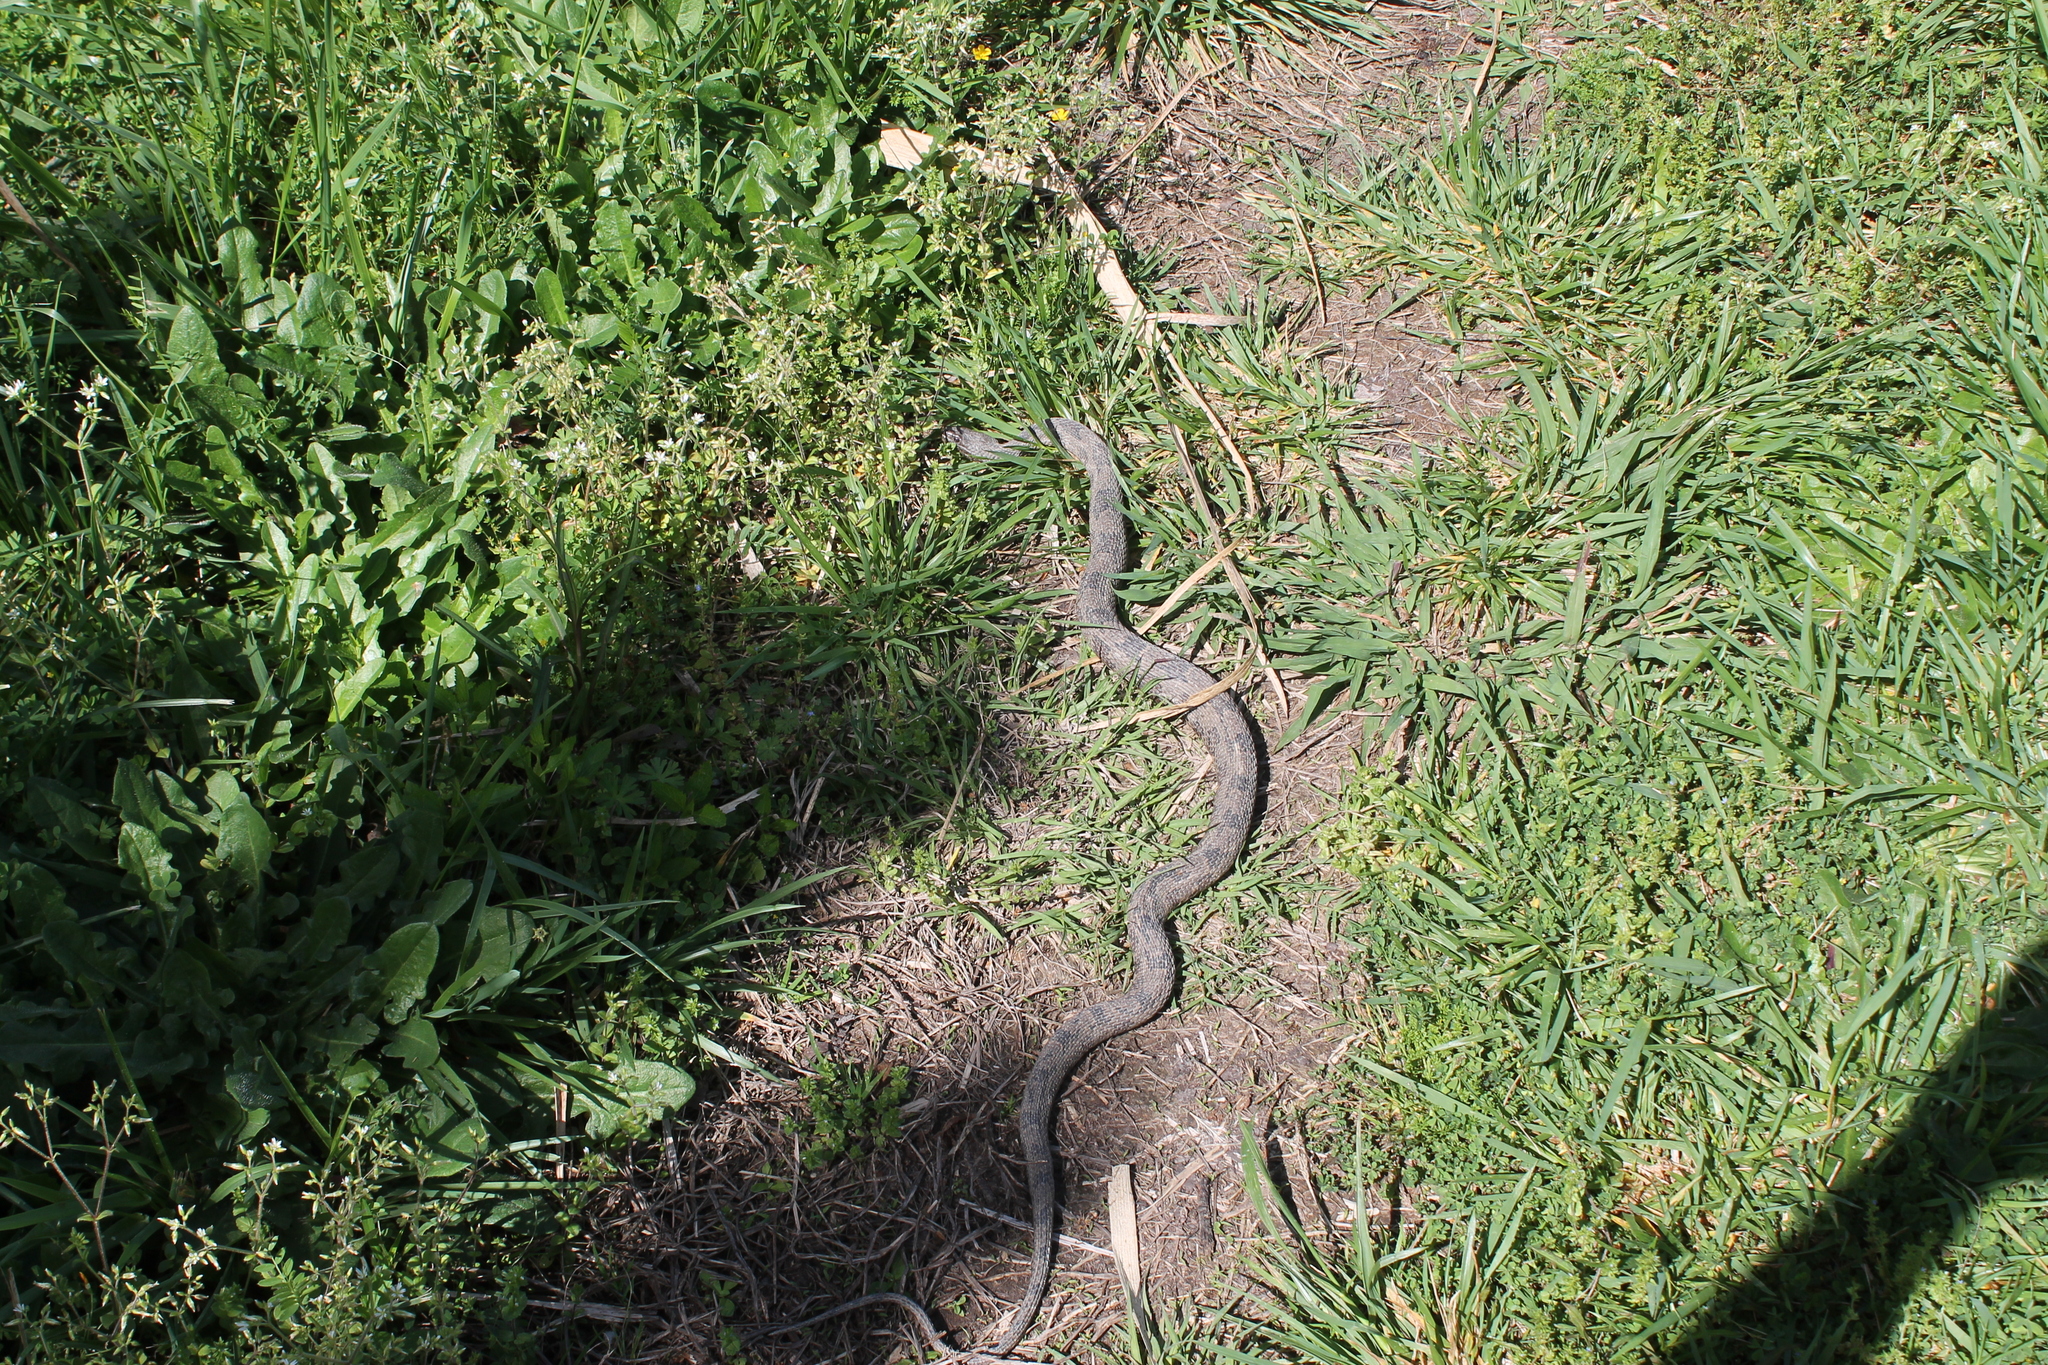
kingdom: Animalia
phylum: Chordata
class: Squamata
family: Colubridae
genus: Nerodia
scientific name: Nerodia taxispilota
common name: Brown water snake
